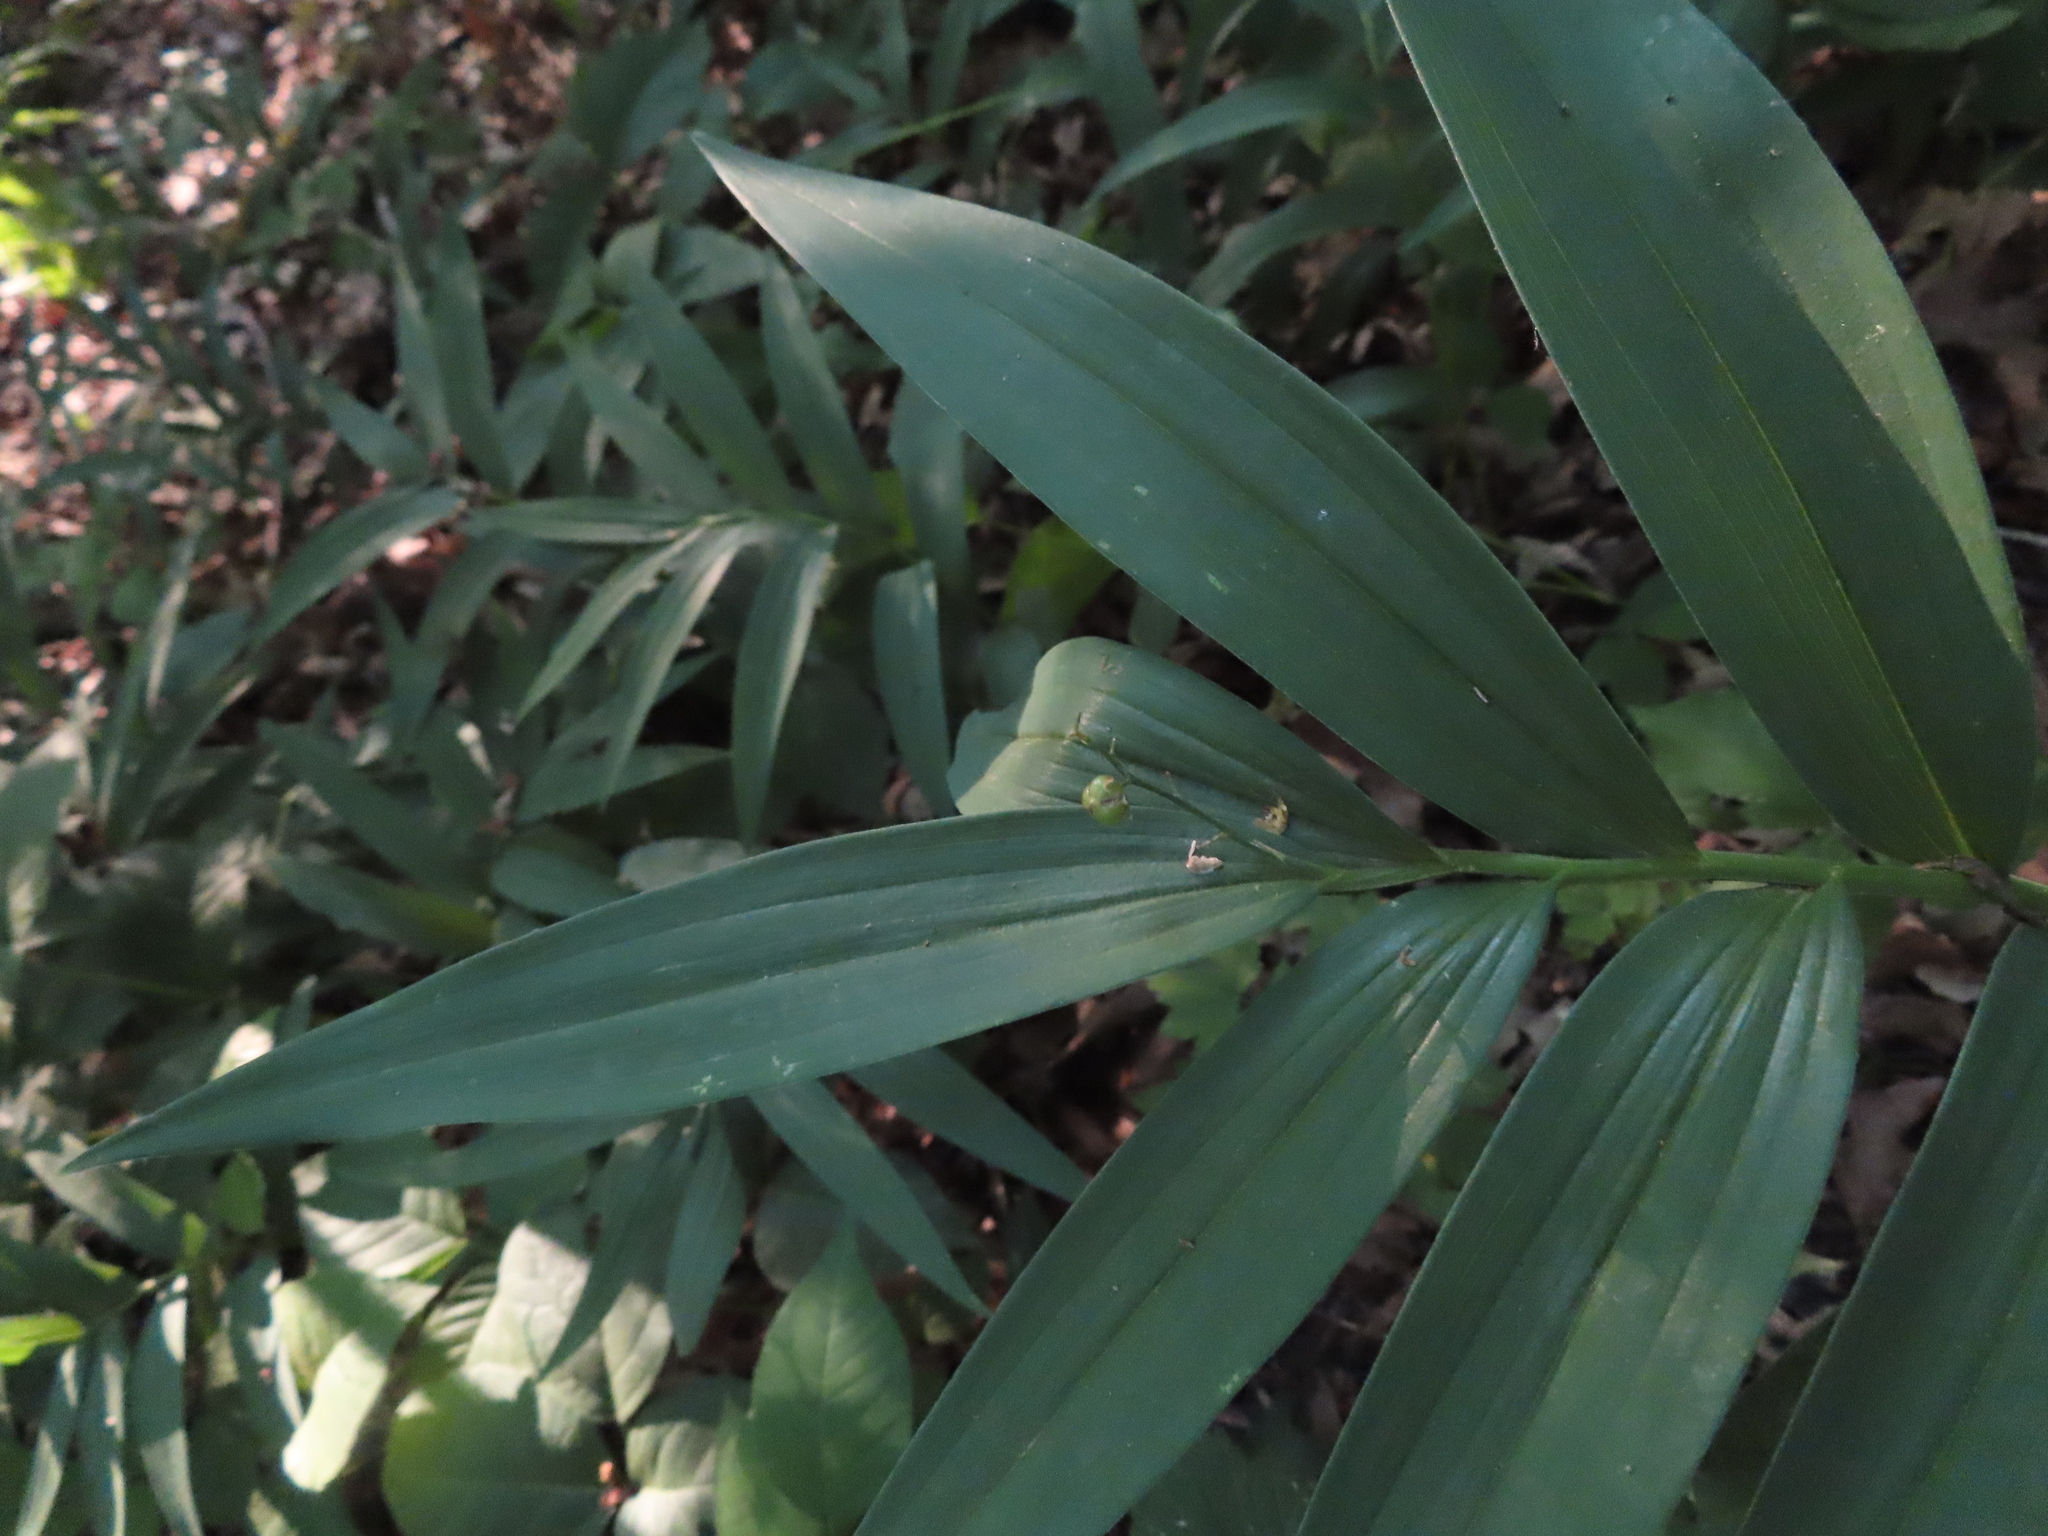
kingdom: Plantae
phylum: Tracheophyta
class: Liliopsida
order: Asparagales
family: Asparagaceae
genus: Maianthemum
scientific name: Maianthemum stellatum
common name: Little false solomon's seal
